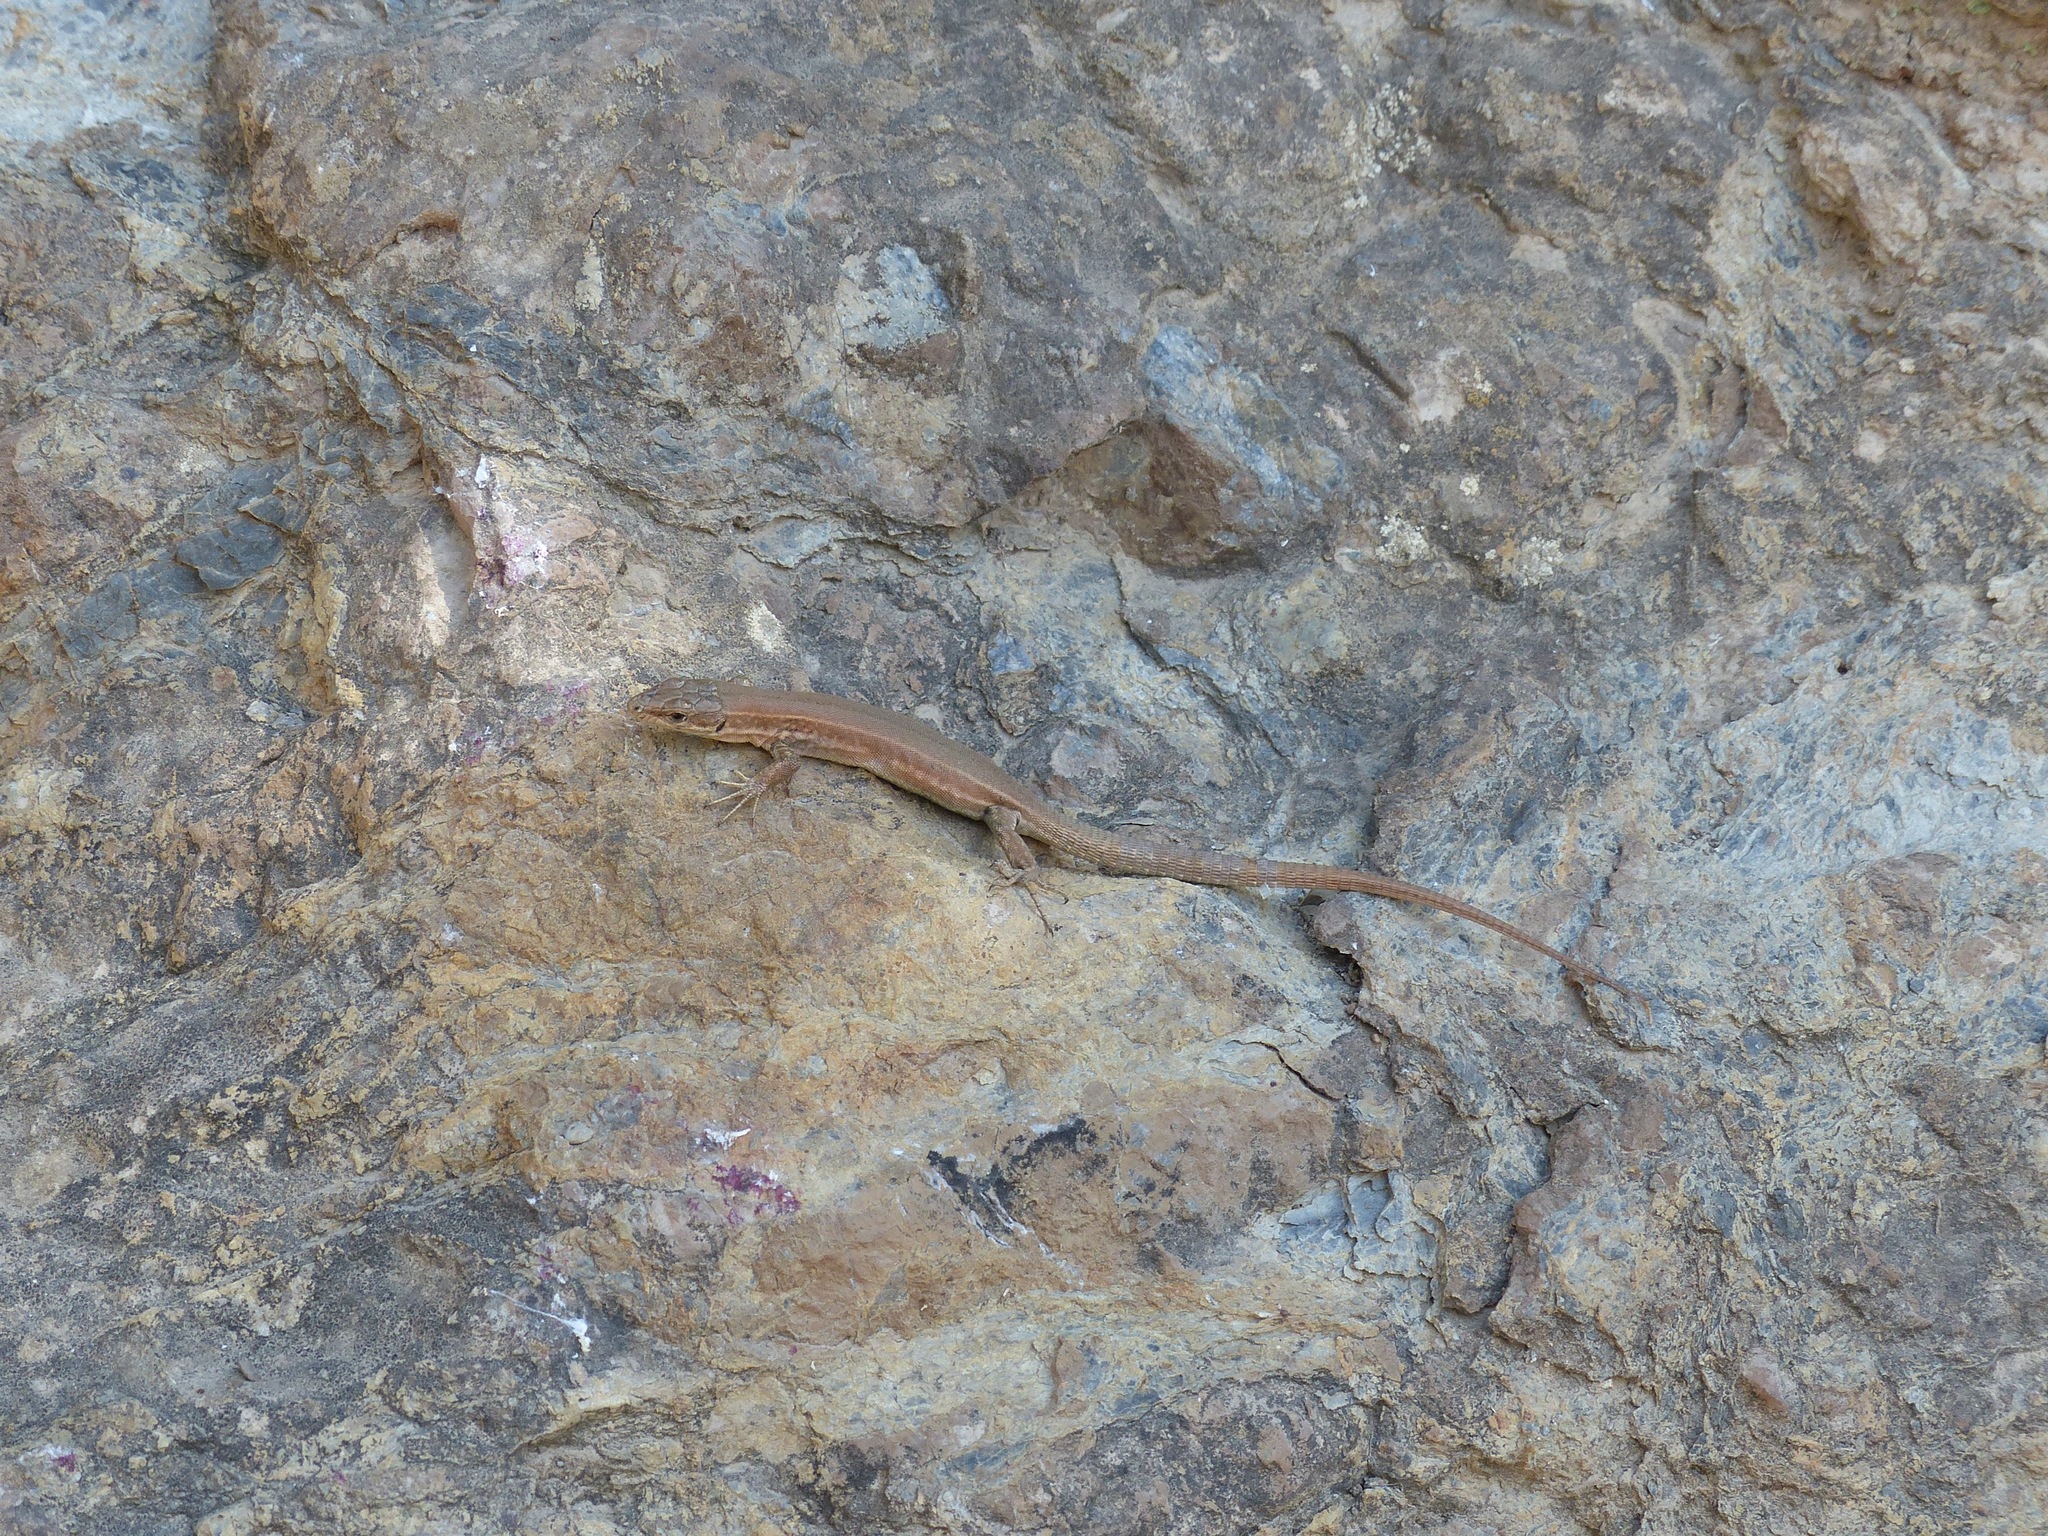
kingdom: Animalia
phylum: Chordata
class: Squamata
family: Lacertidae
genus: Podarcis
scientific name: Podarcis liolepis
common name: Catalonian wall lizard
